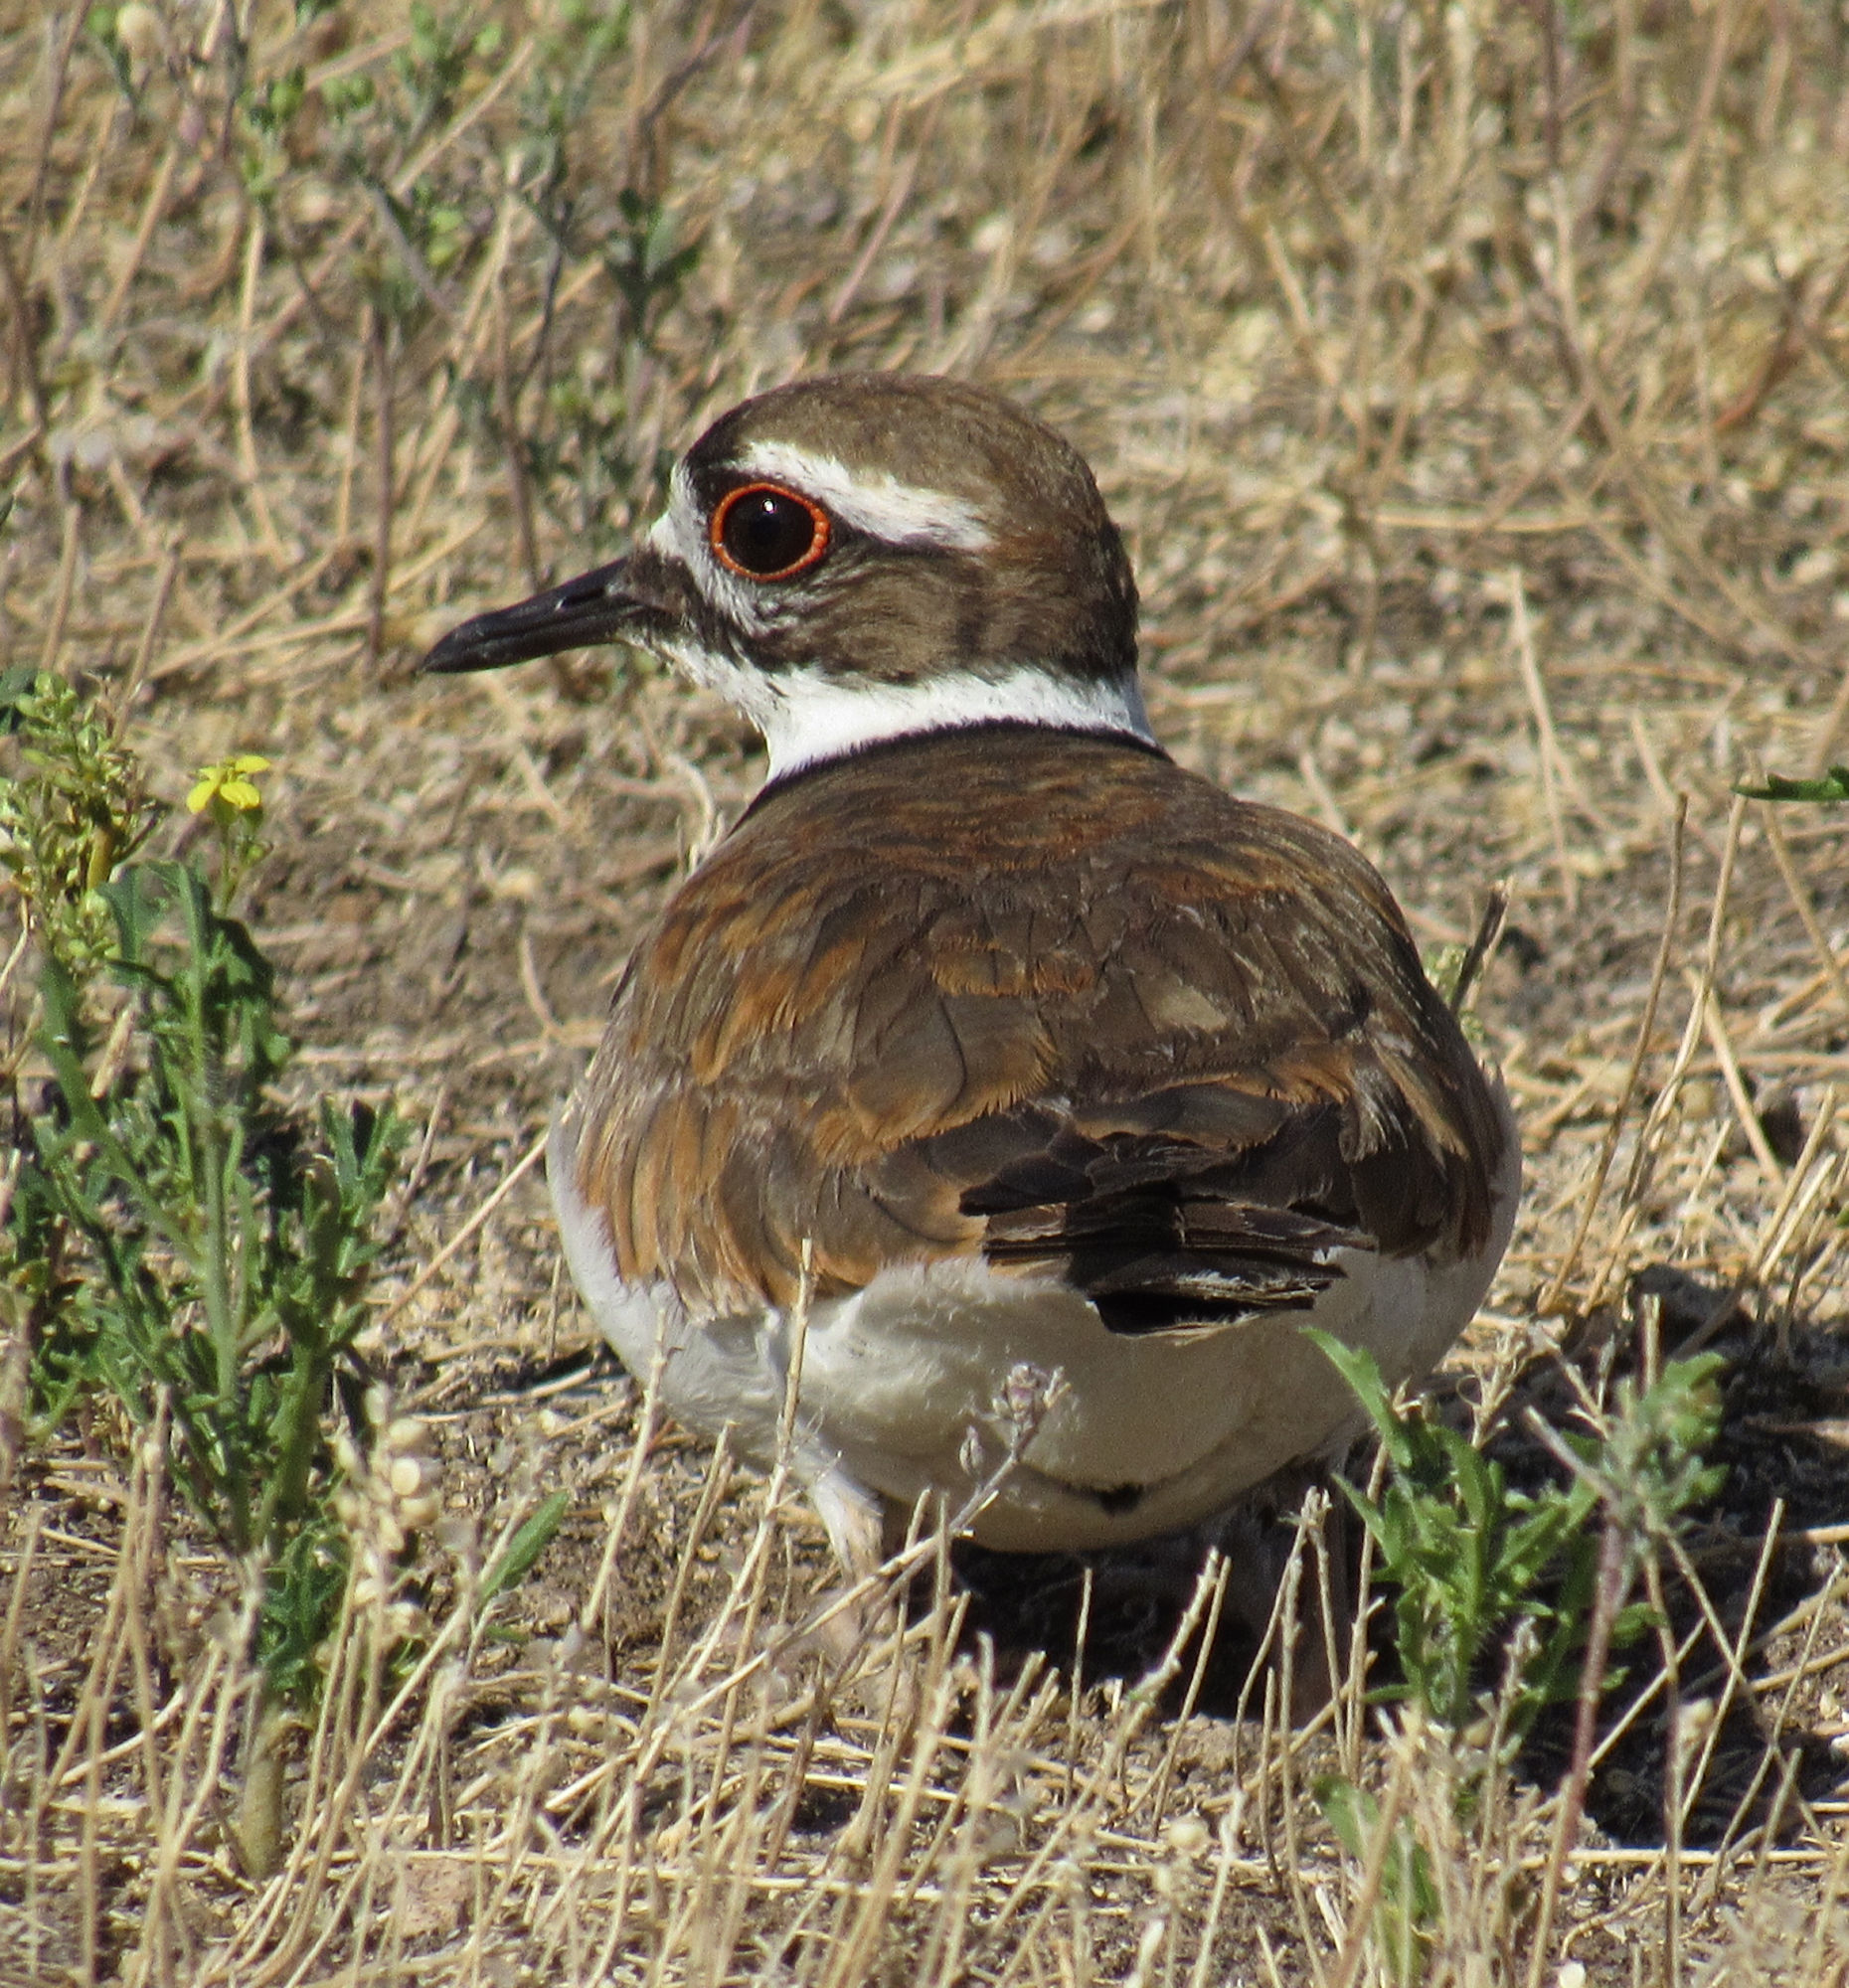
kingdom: Animalia
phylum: Chordata
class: Aves
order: Charadriiformes
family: Charadriidae
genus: Charadrius
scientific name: Charadrius vociferus
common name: Killdeer
